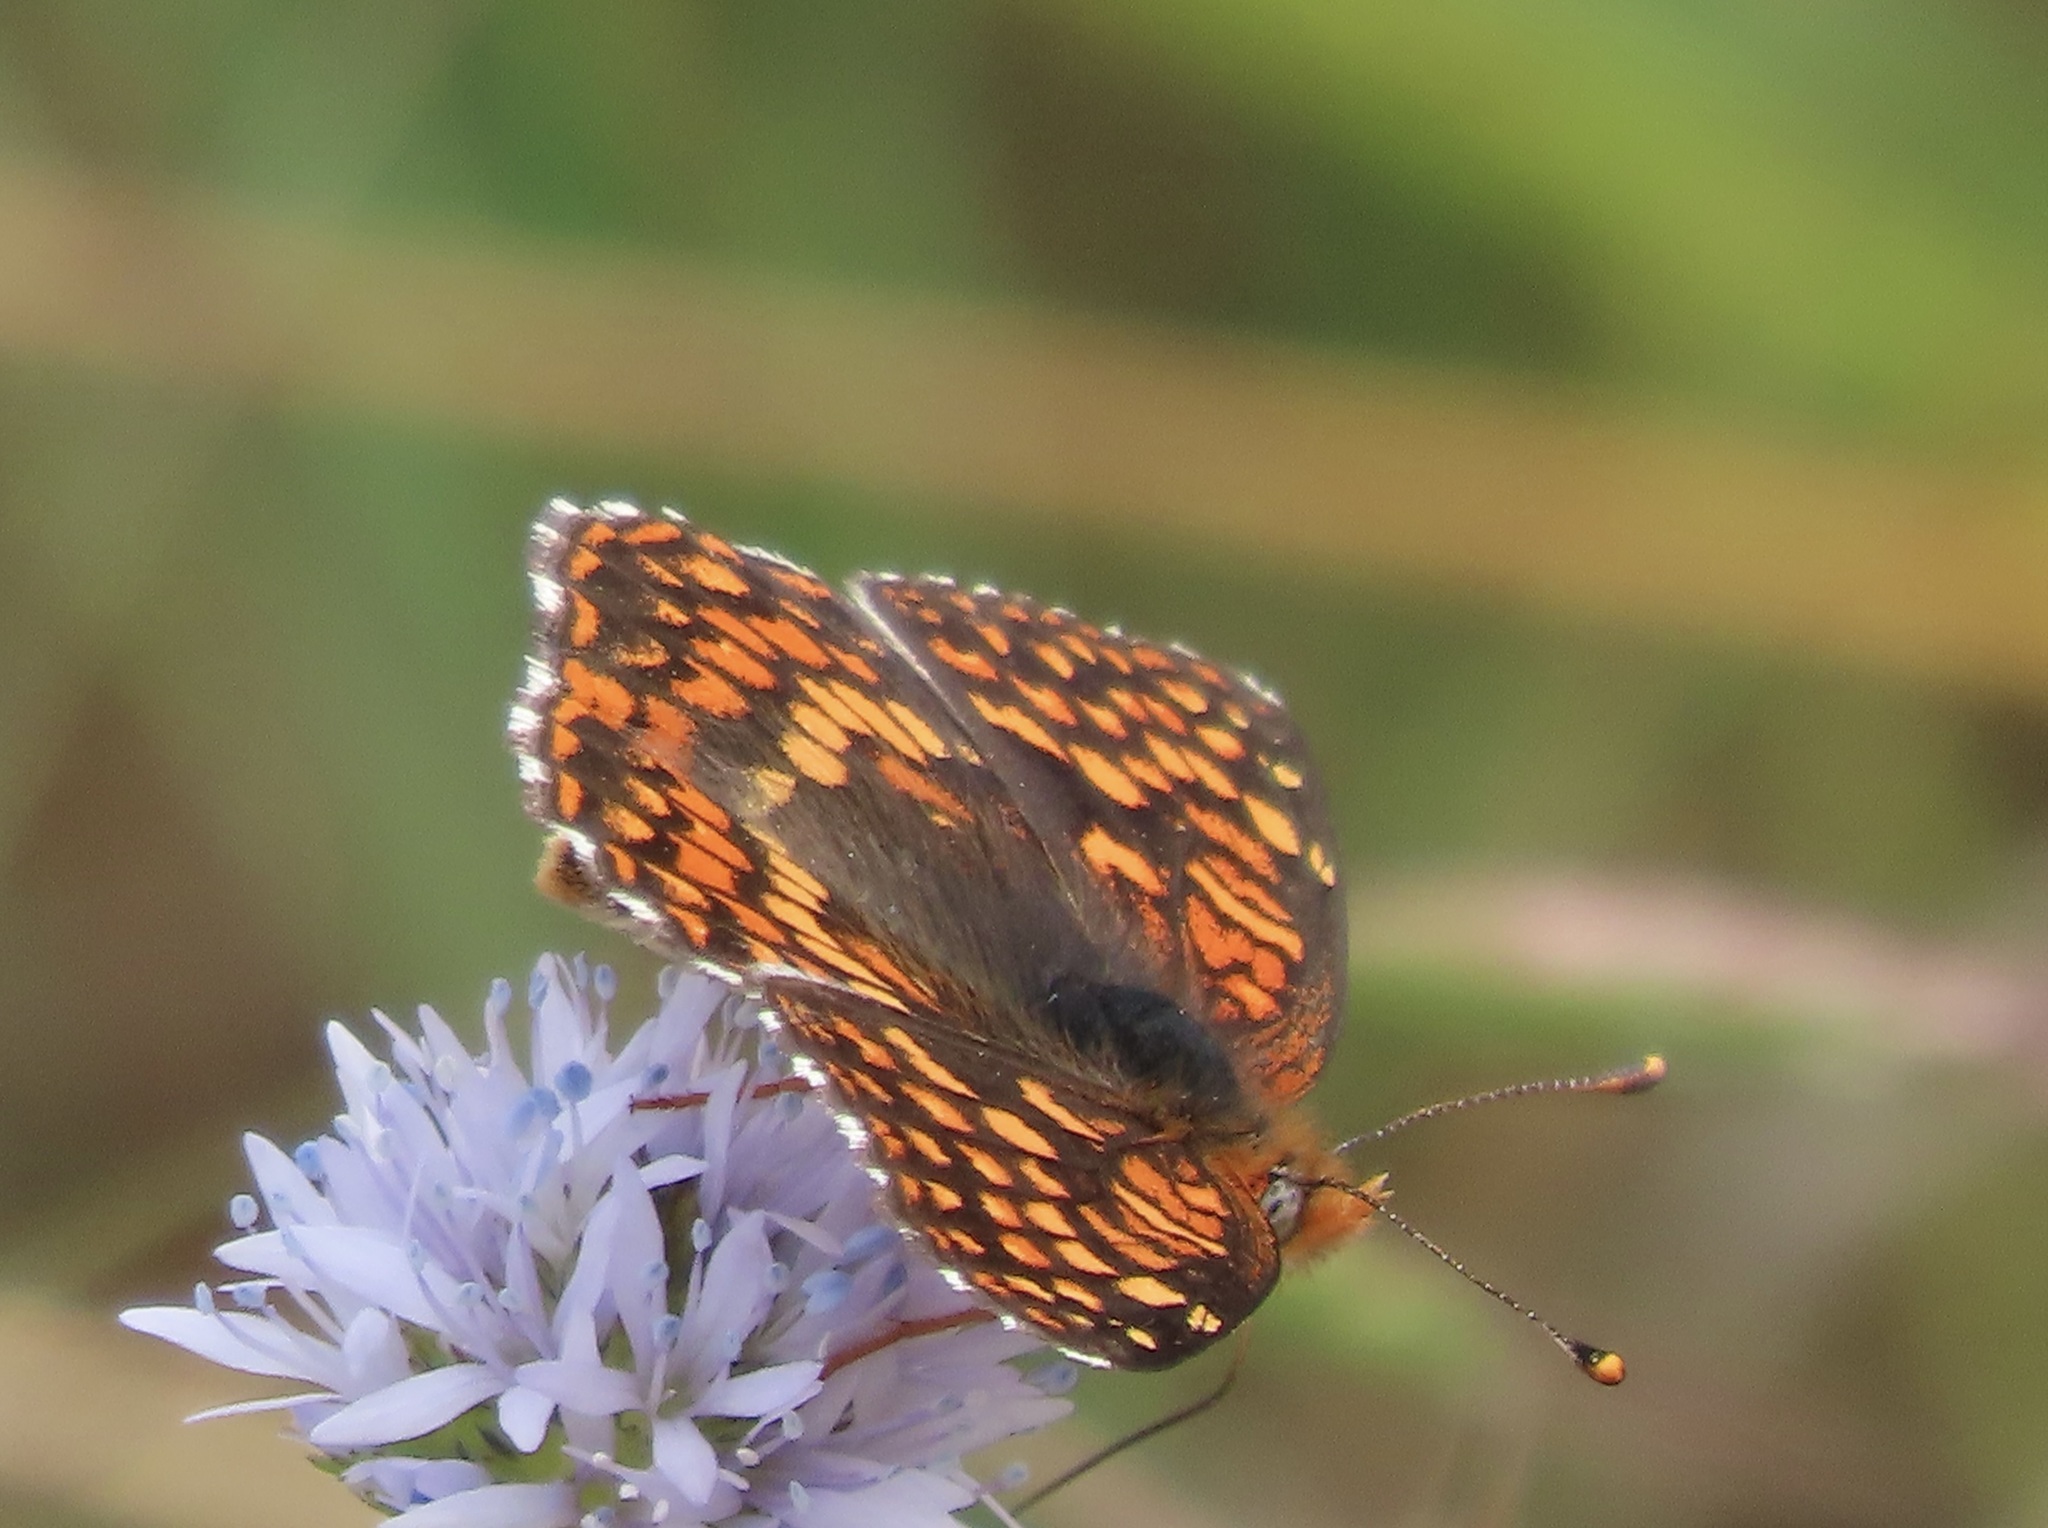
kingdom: Animalia
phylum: Arthropoda
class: Insecta
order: Lepidoptera
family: Nymphalidae
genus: Chlosyne
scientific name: Chlosyne palla
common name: Northern checkerspot
